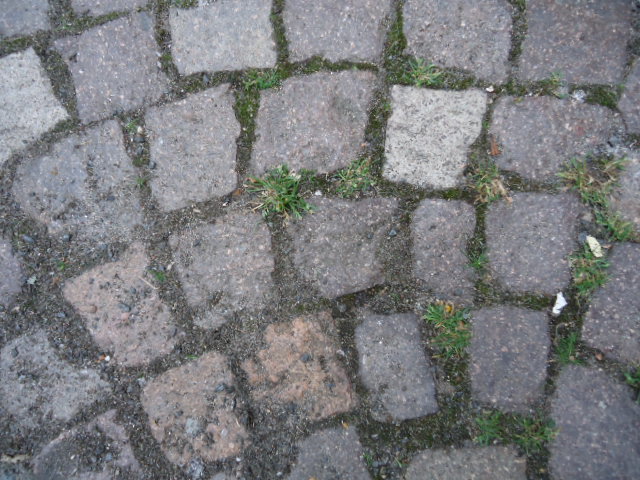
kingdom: Plantae
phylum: Tracheophyta
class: Liliopsida
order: Poales
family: Poaceae
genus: Poa
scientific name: Poa annua
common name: Annual bluegrass
